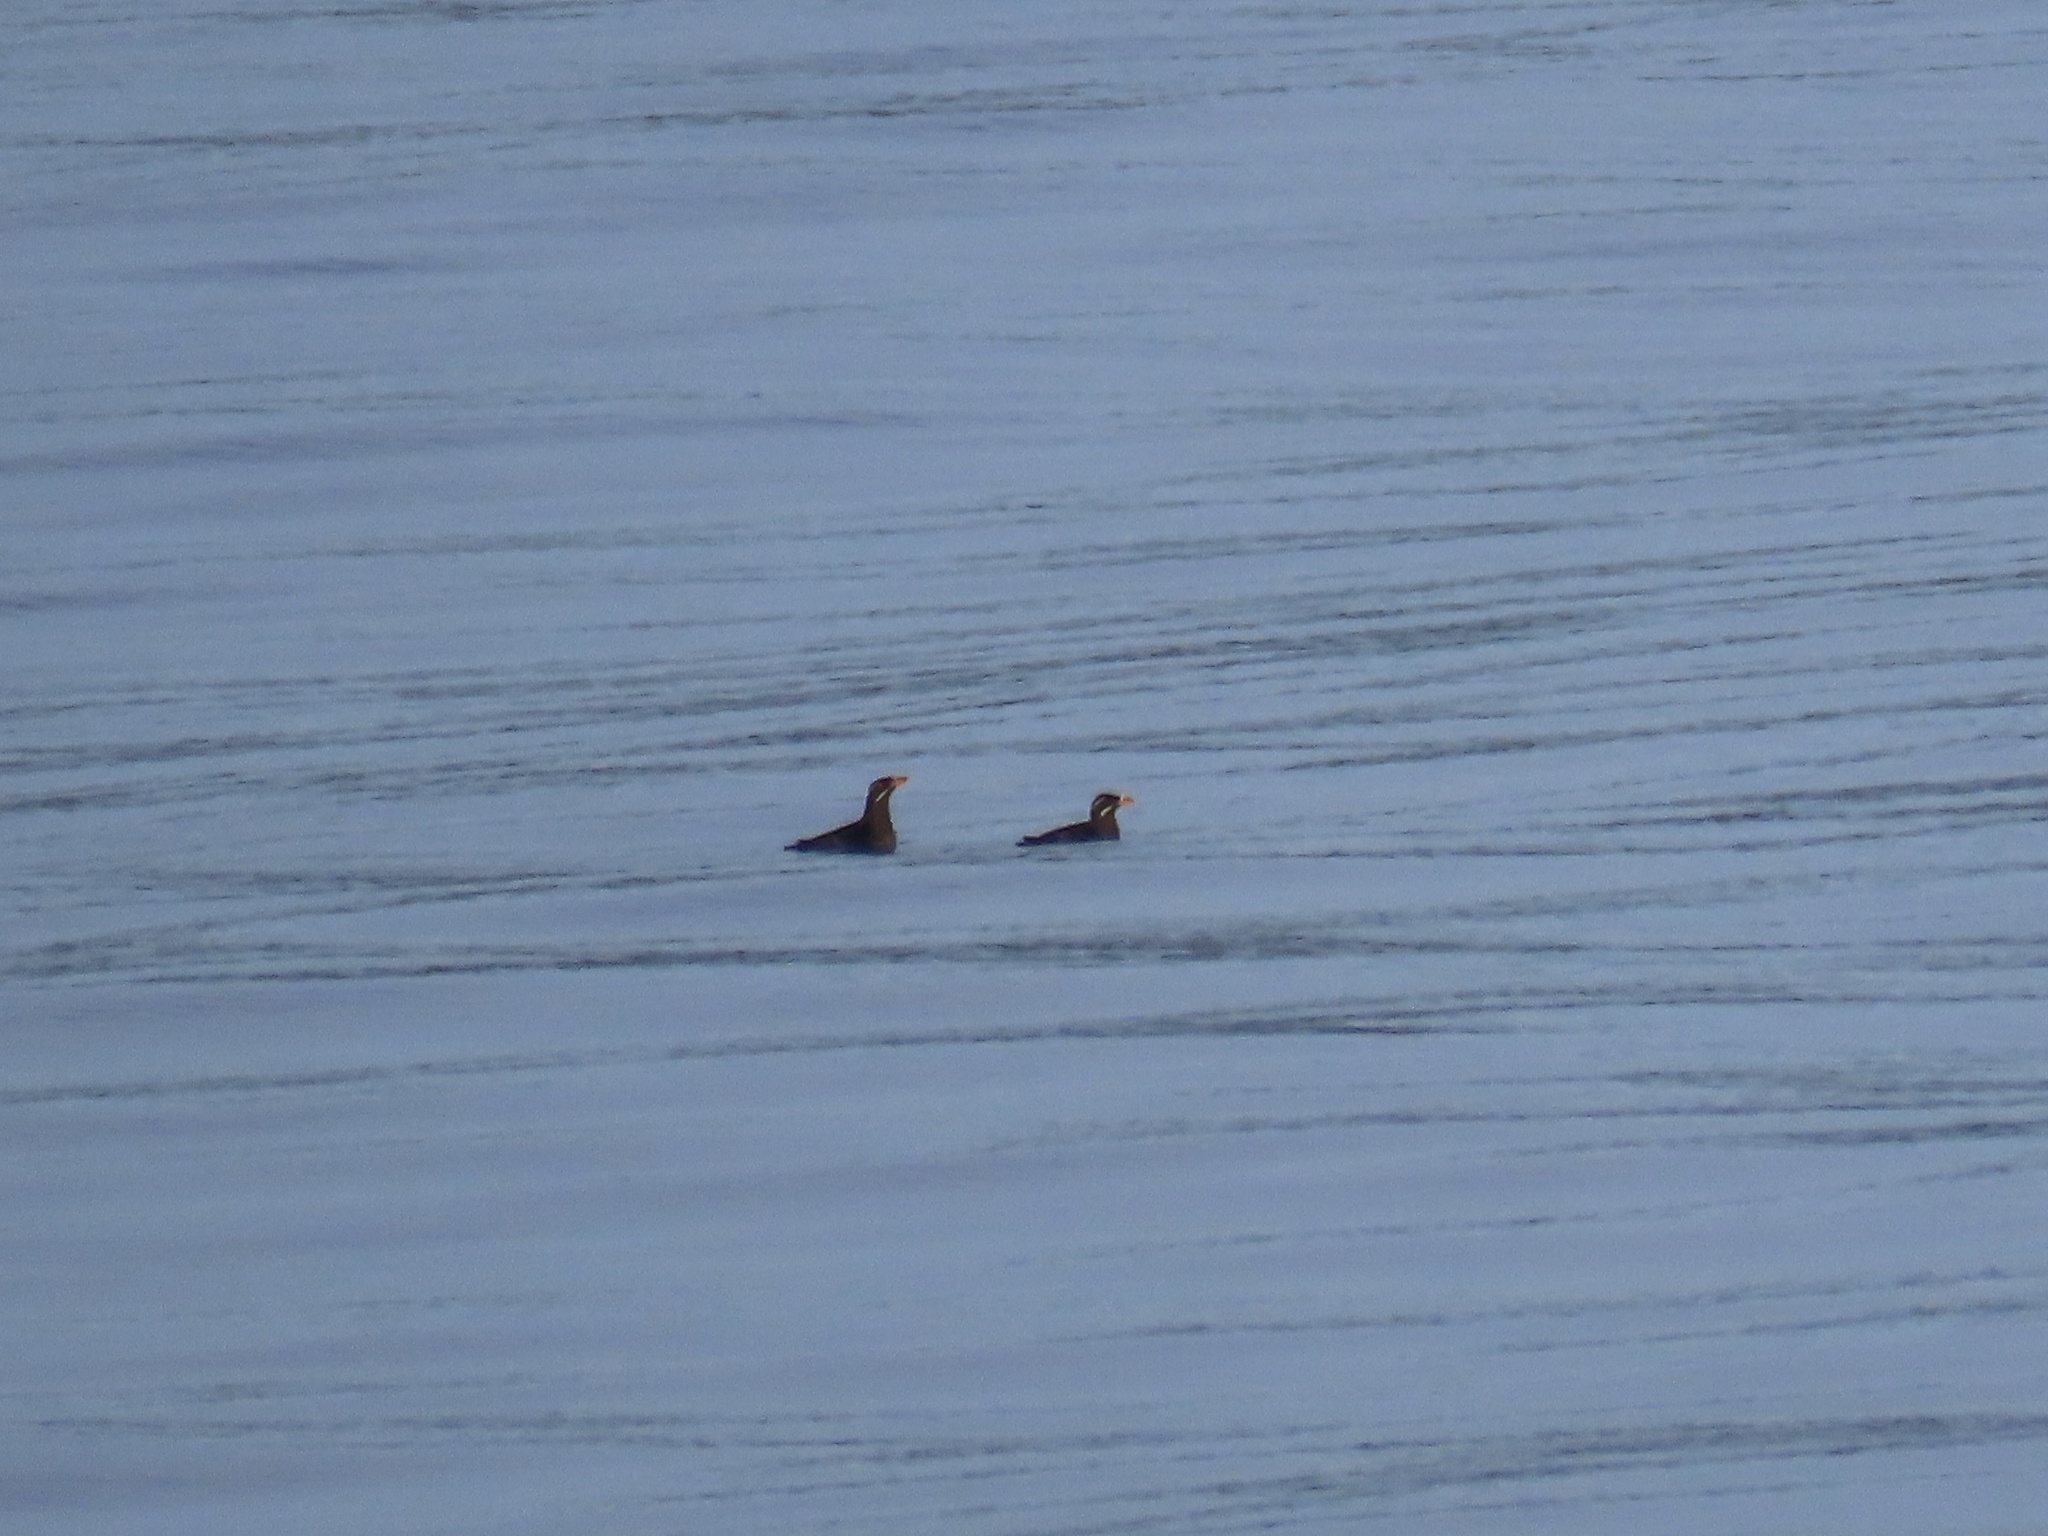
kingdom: Animalia
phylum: Chordata
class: Aves
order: Charadriiformes
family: Alcidae
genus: Cerorhinca
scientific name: Cerorhinca monocerata
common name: Rhinoceros auklet
